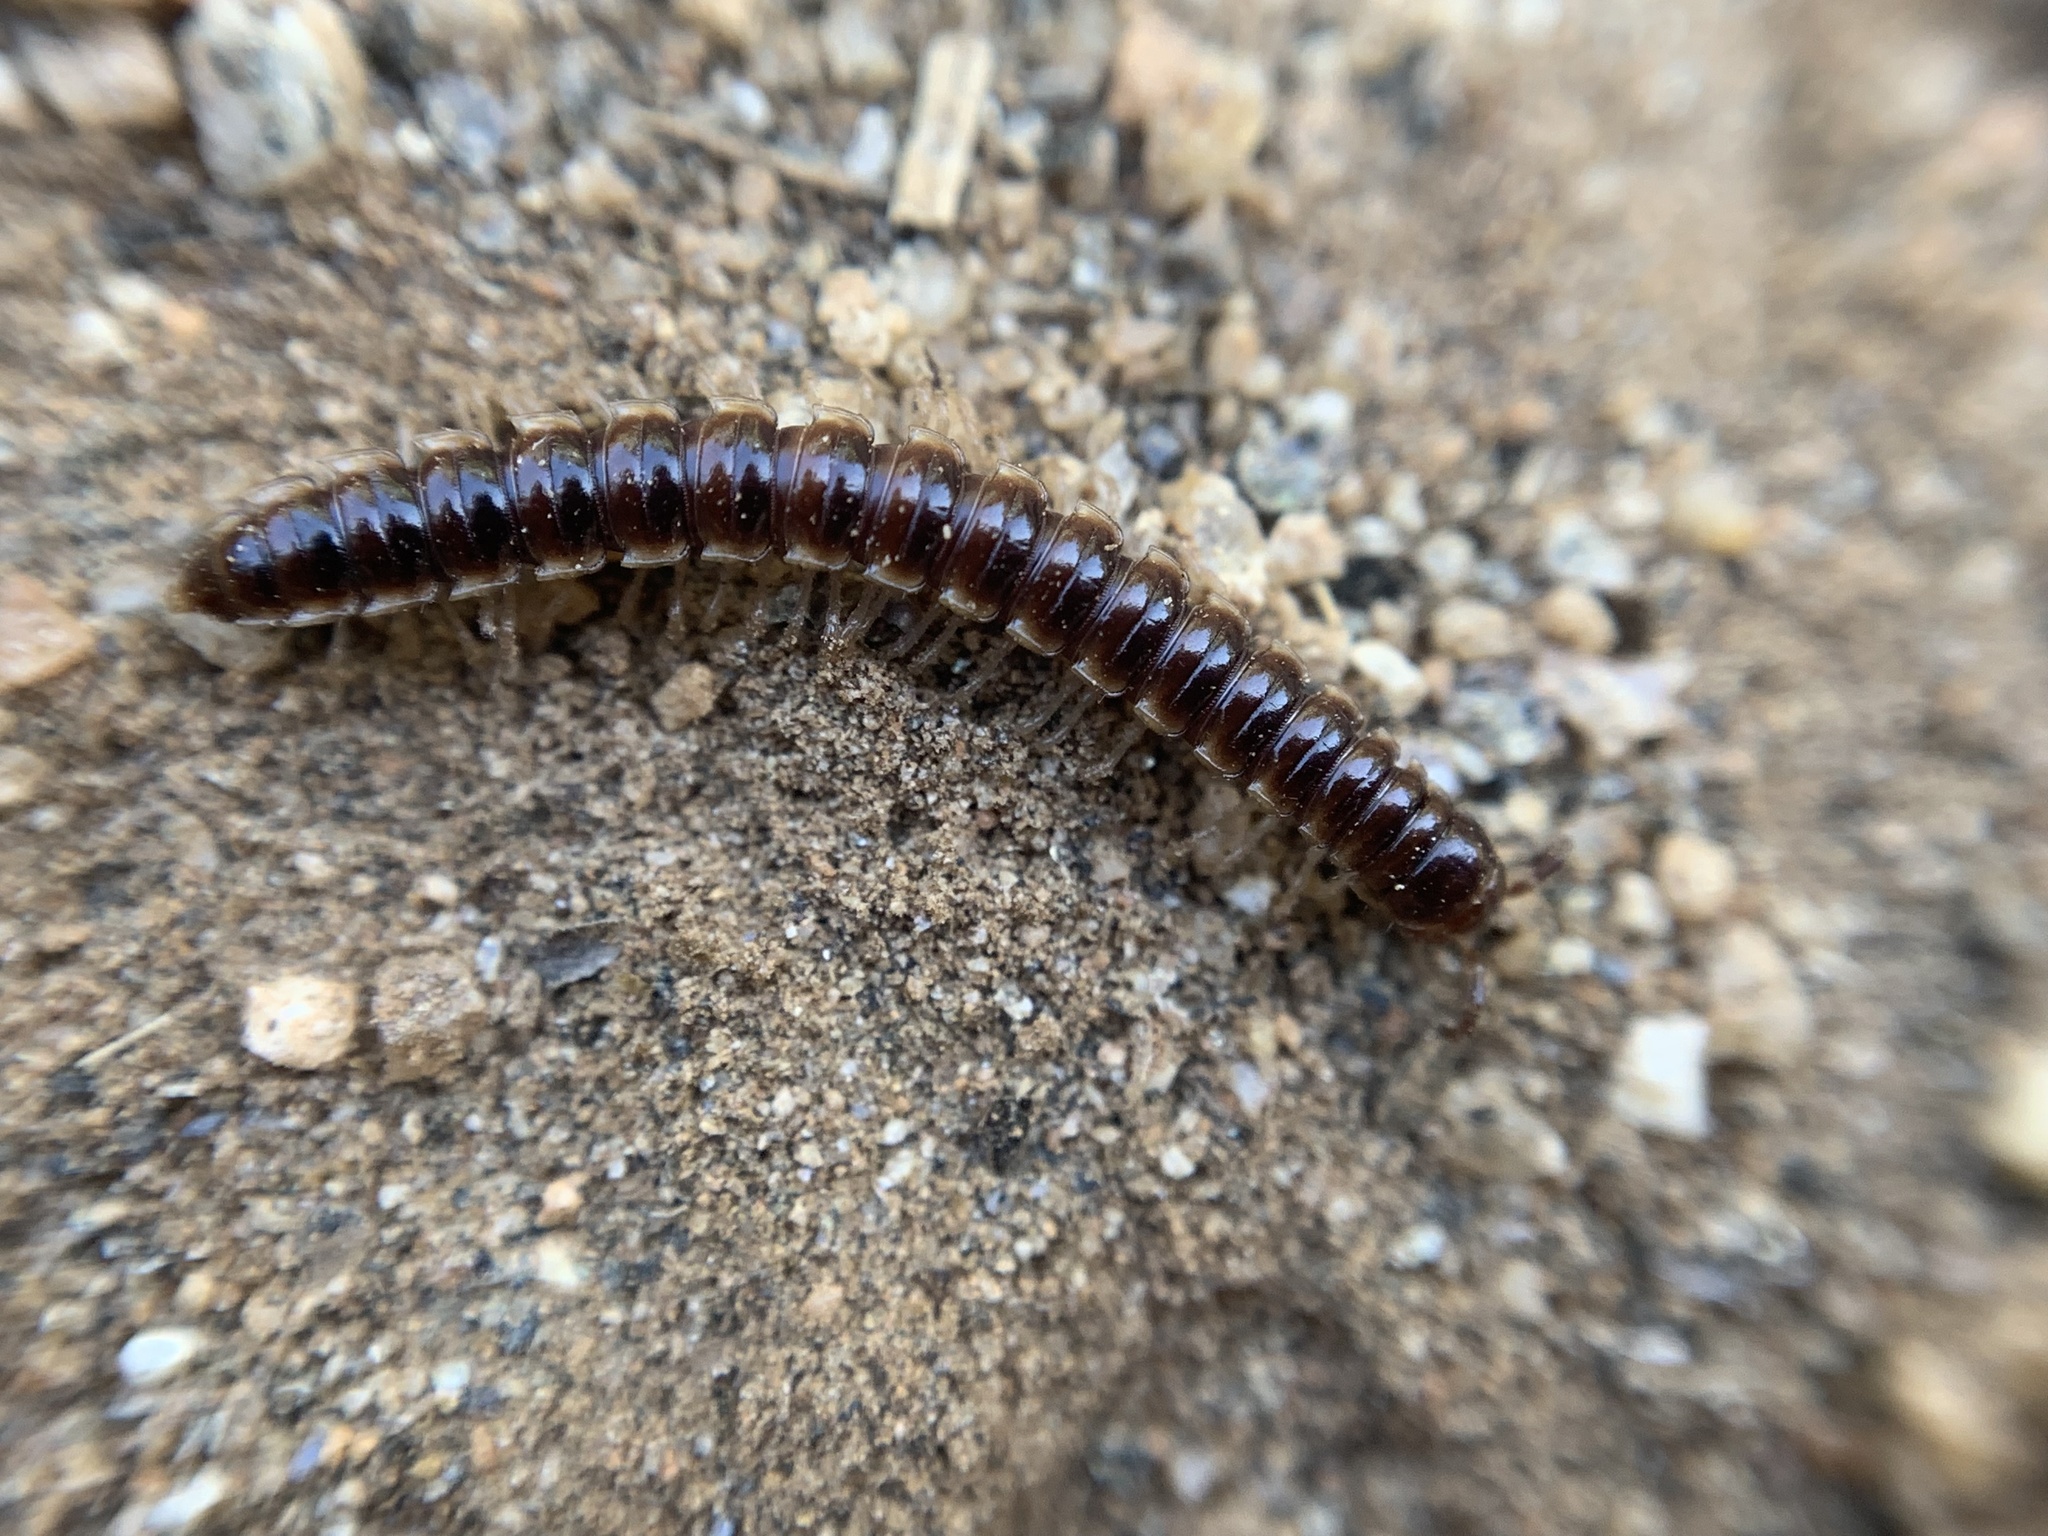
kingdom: Animalia
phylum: Arthropoda
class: Diplopoda
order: Polydesmida
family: Paradoxosomatidae
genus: Oxidus
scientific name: Oxidus gracilis
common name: Greenhouse millipede
